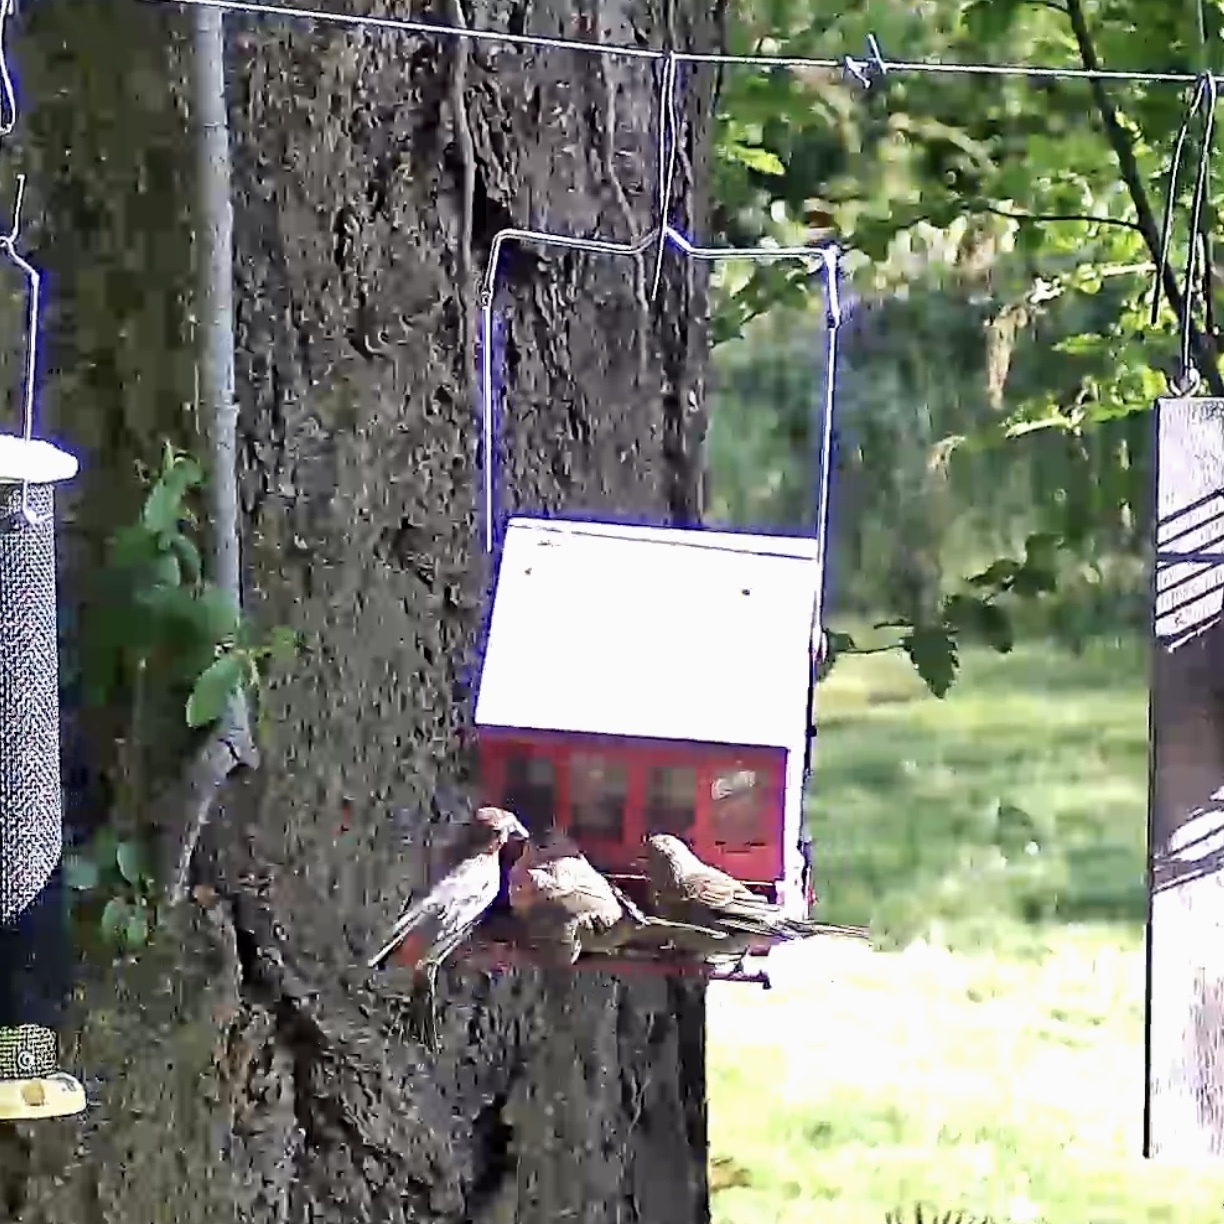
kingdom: Animalia
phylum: Chordata
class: Aves
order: Passeriformes
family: Fringillidae
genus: Haemorhous
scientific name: Haemorhous mexicanus
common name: House finch
